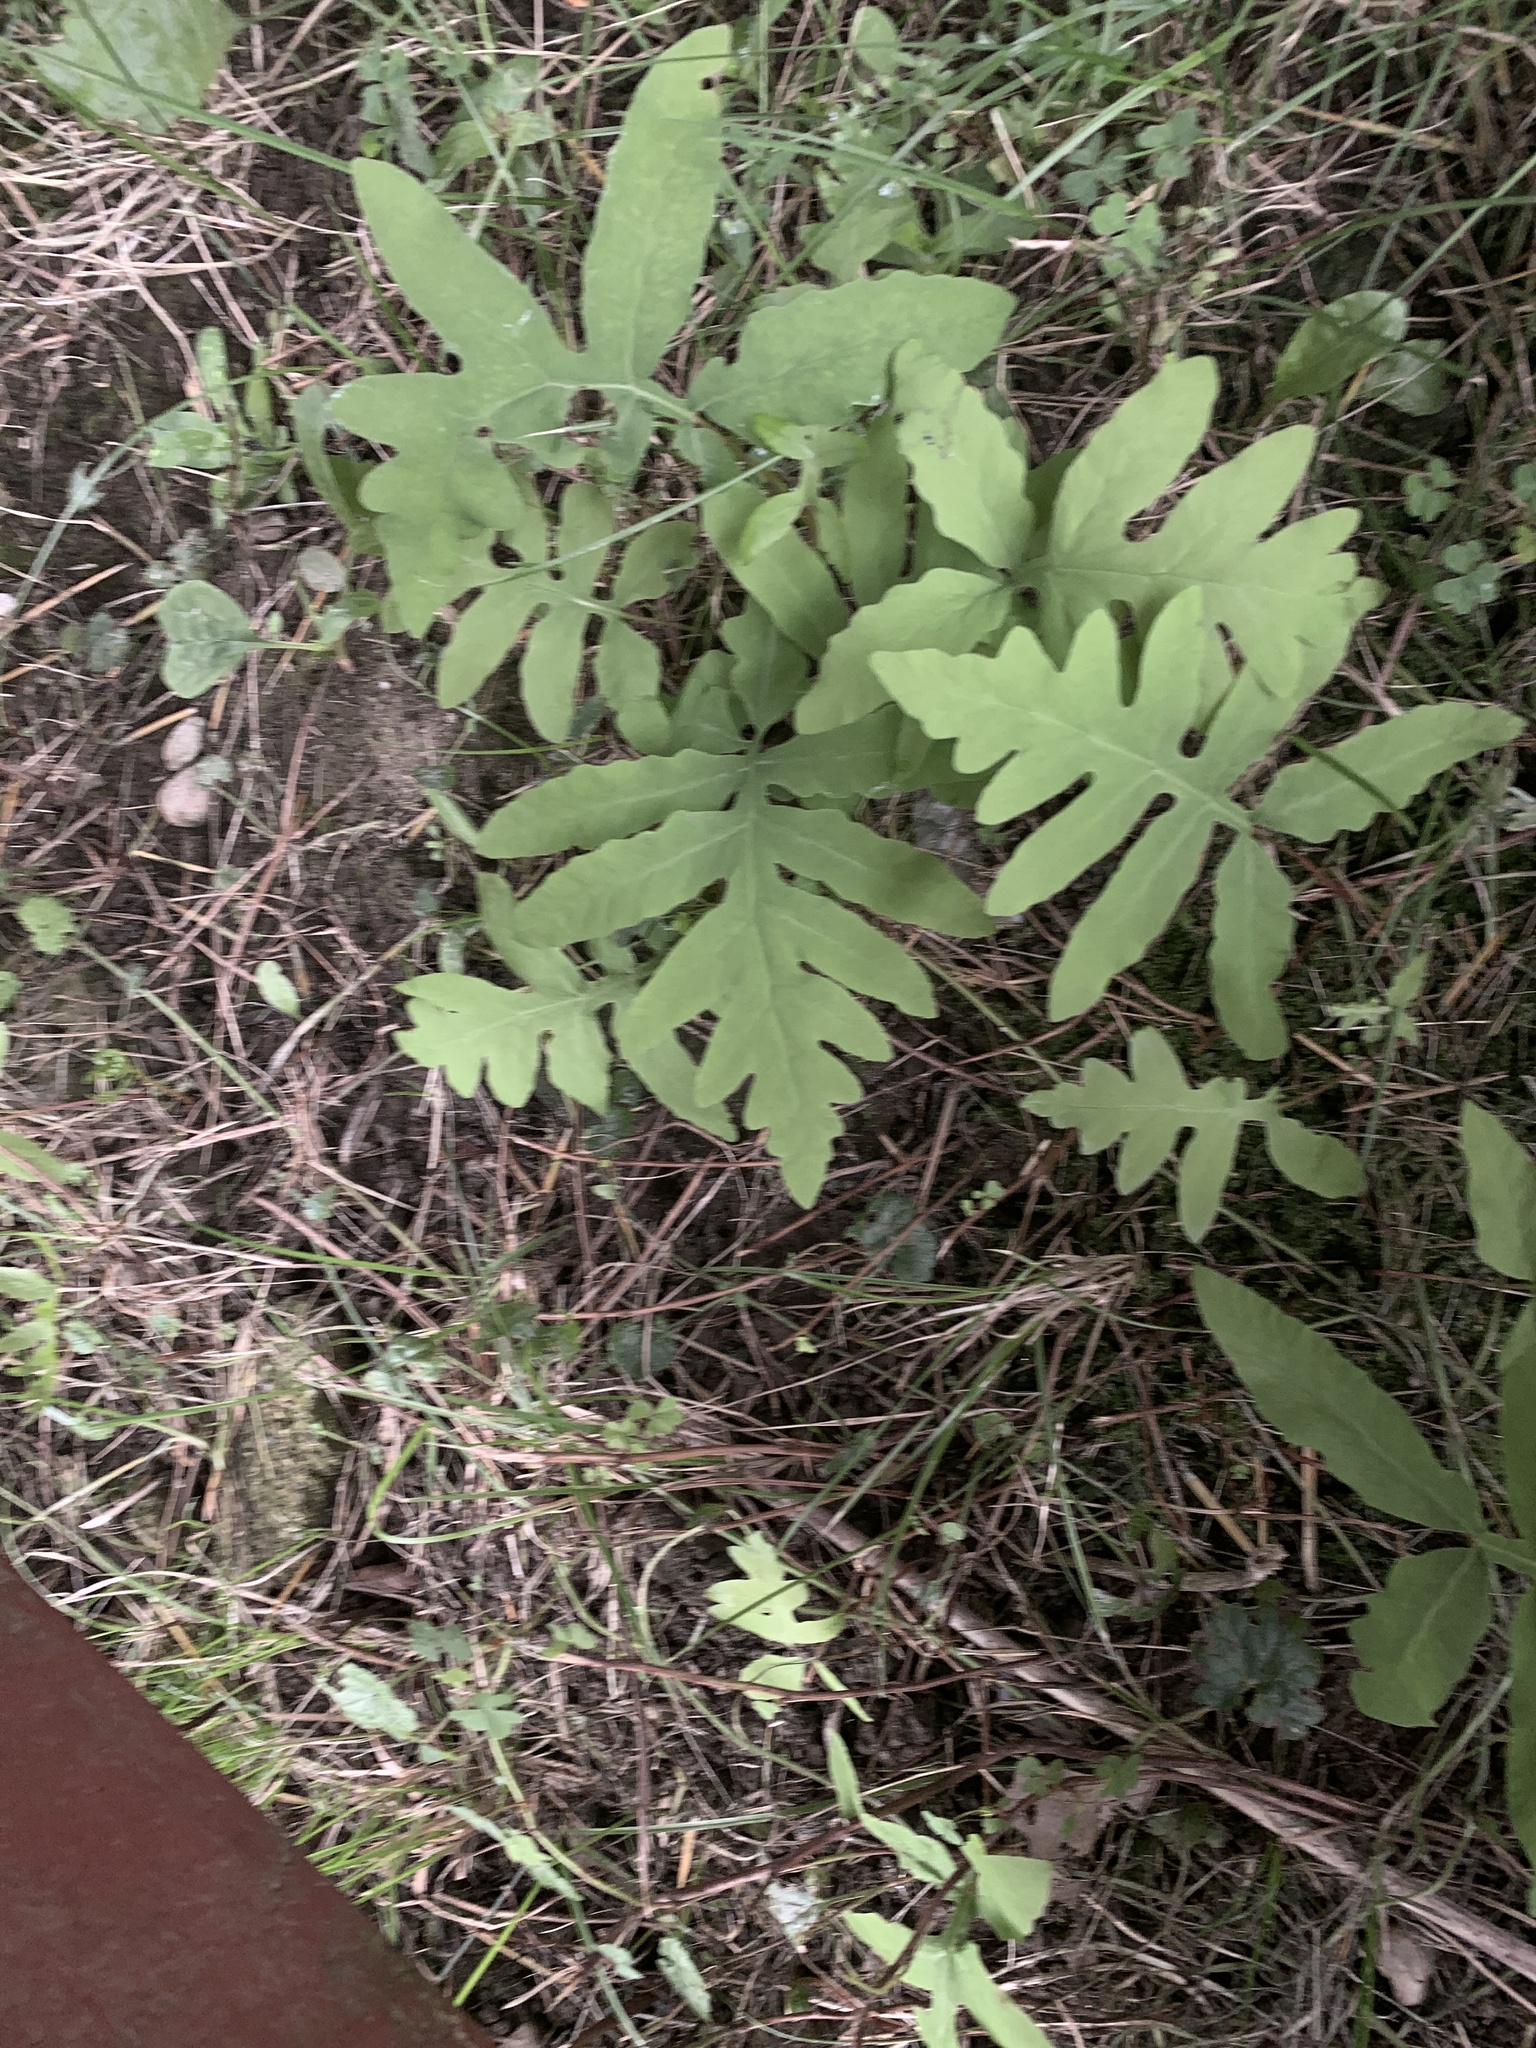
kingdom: Plantae
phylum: Tracheophyta
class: Polypodiopsida
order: Polypodiales
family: Onocleaceae
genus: Onoclea
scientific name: Onoclea sensibilis
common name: Sensitive fern
